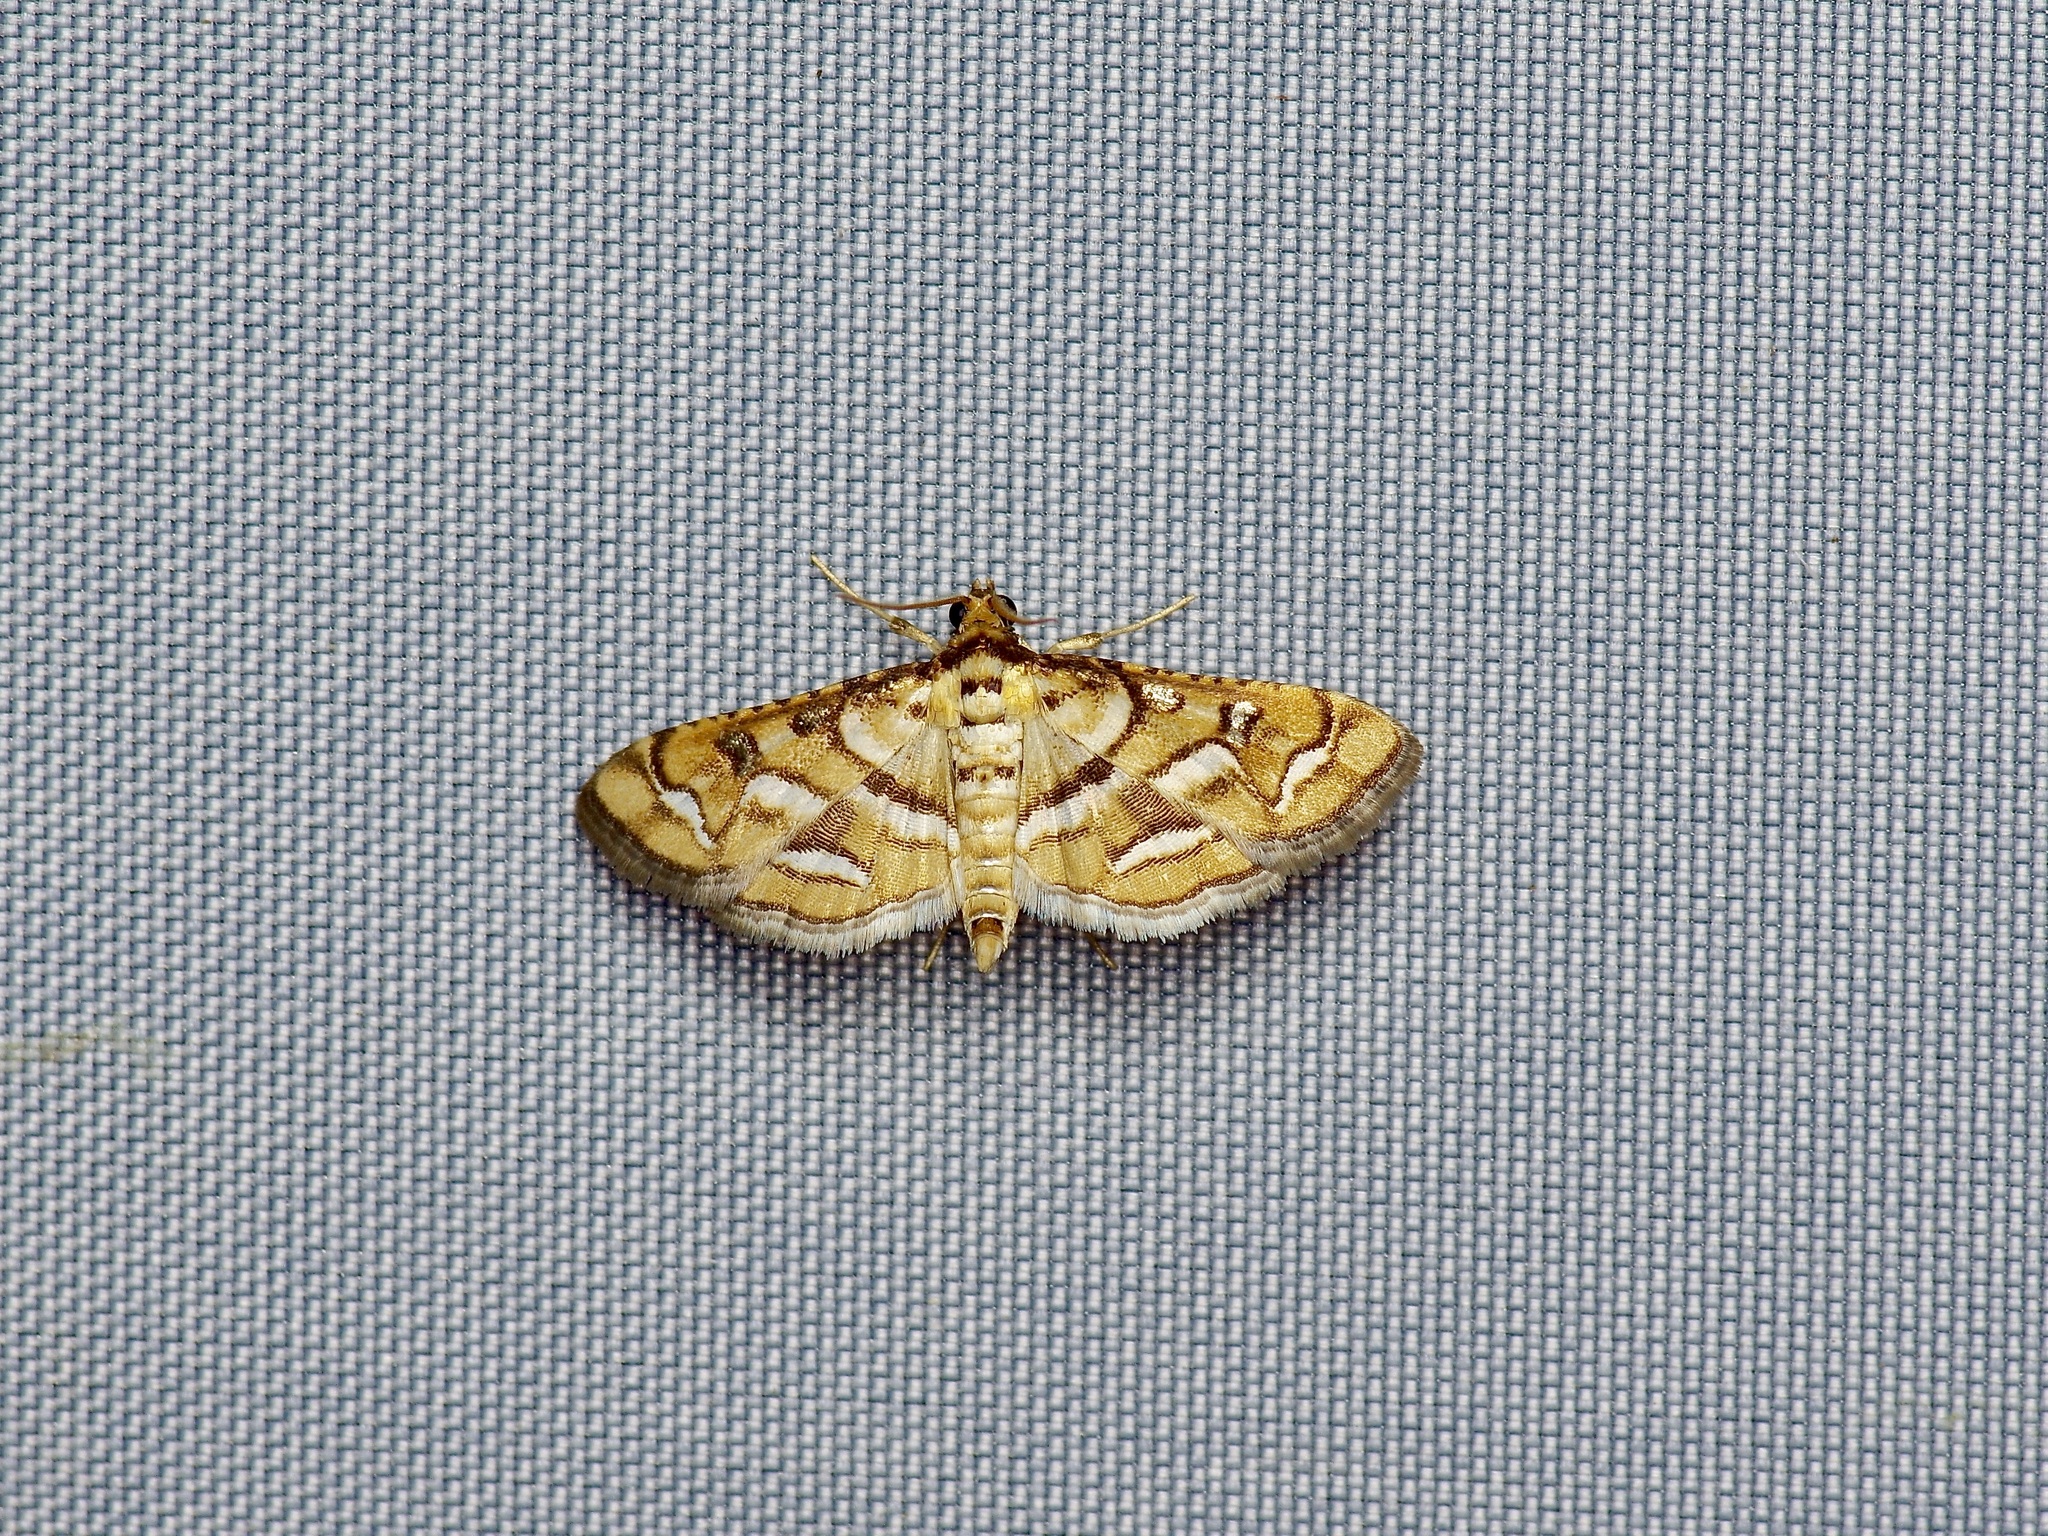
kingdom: Animalia
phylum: Arthropoda
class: Insecta
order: Lepidoptera
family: Crambidae
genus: Hileithia
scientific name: Hileithia magualis
